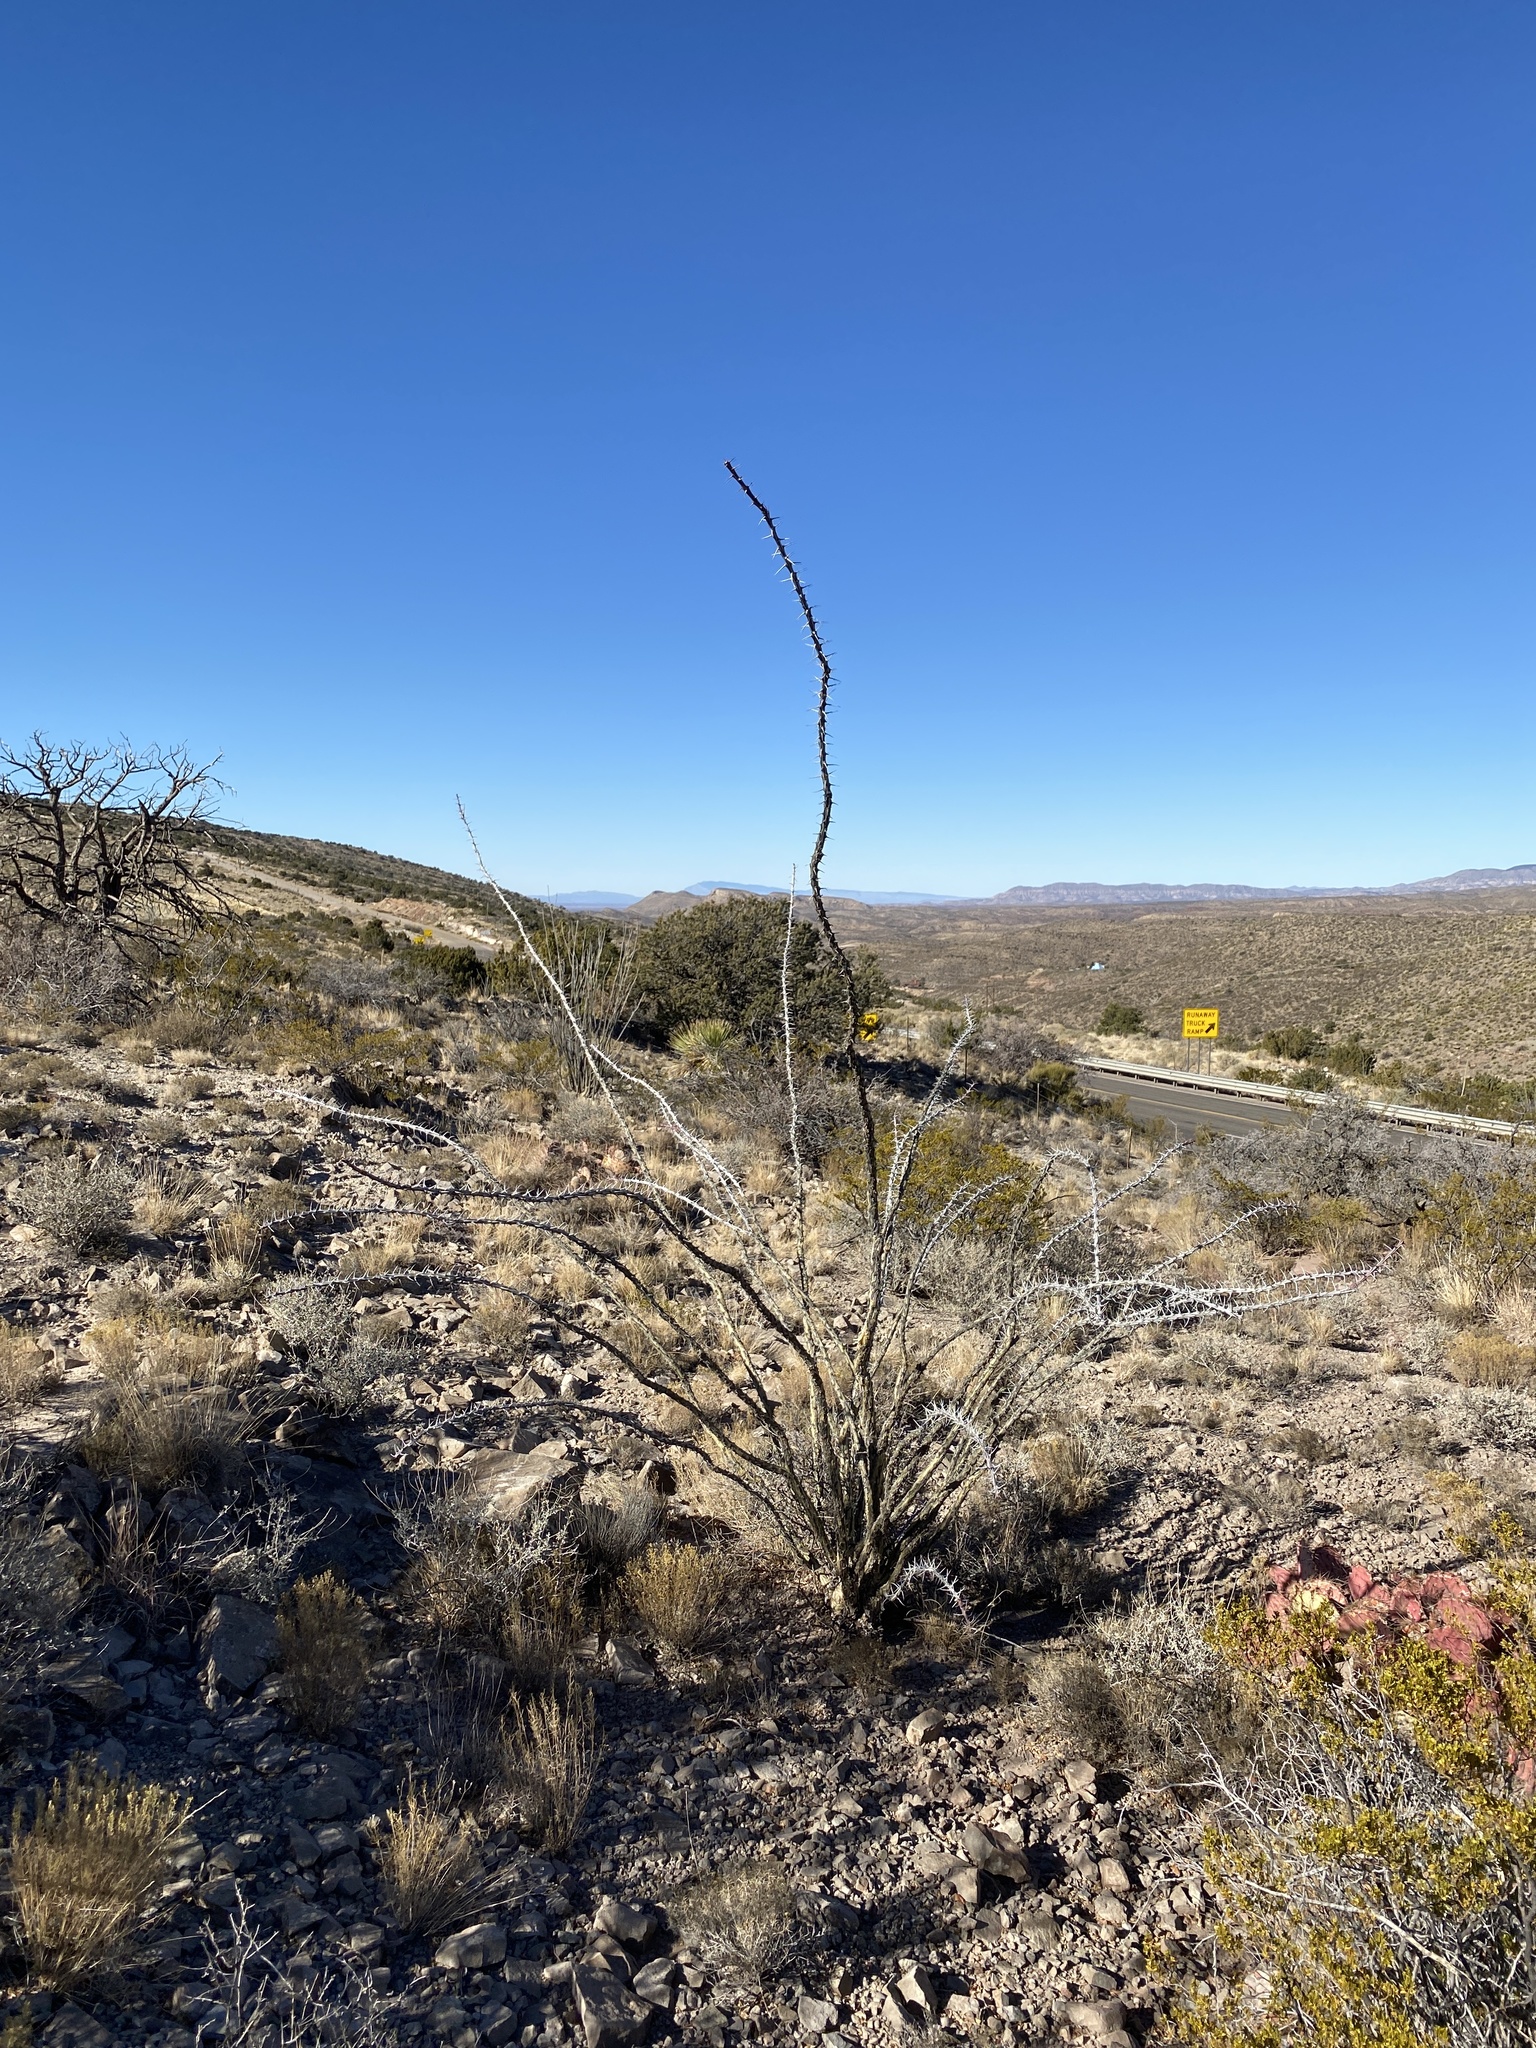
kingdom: Plantae
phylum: Tracheophyta
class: Magnoliopsida
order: Ericales
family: Fouquieriaceae
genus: Fouquieria
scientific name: Fouquieria splendens
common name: Vine-cactus
